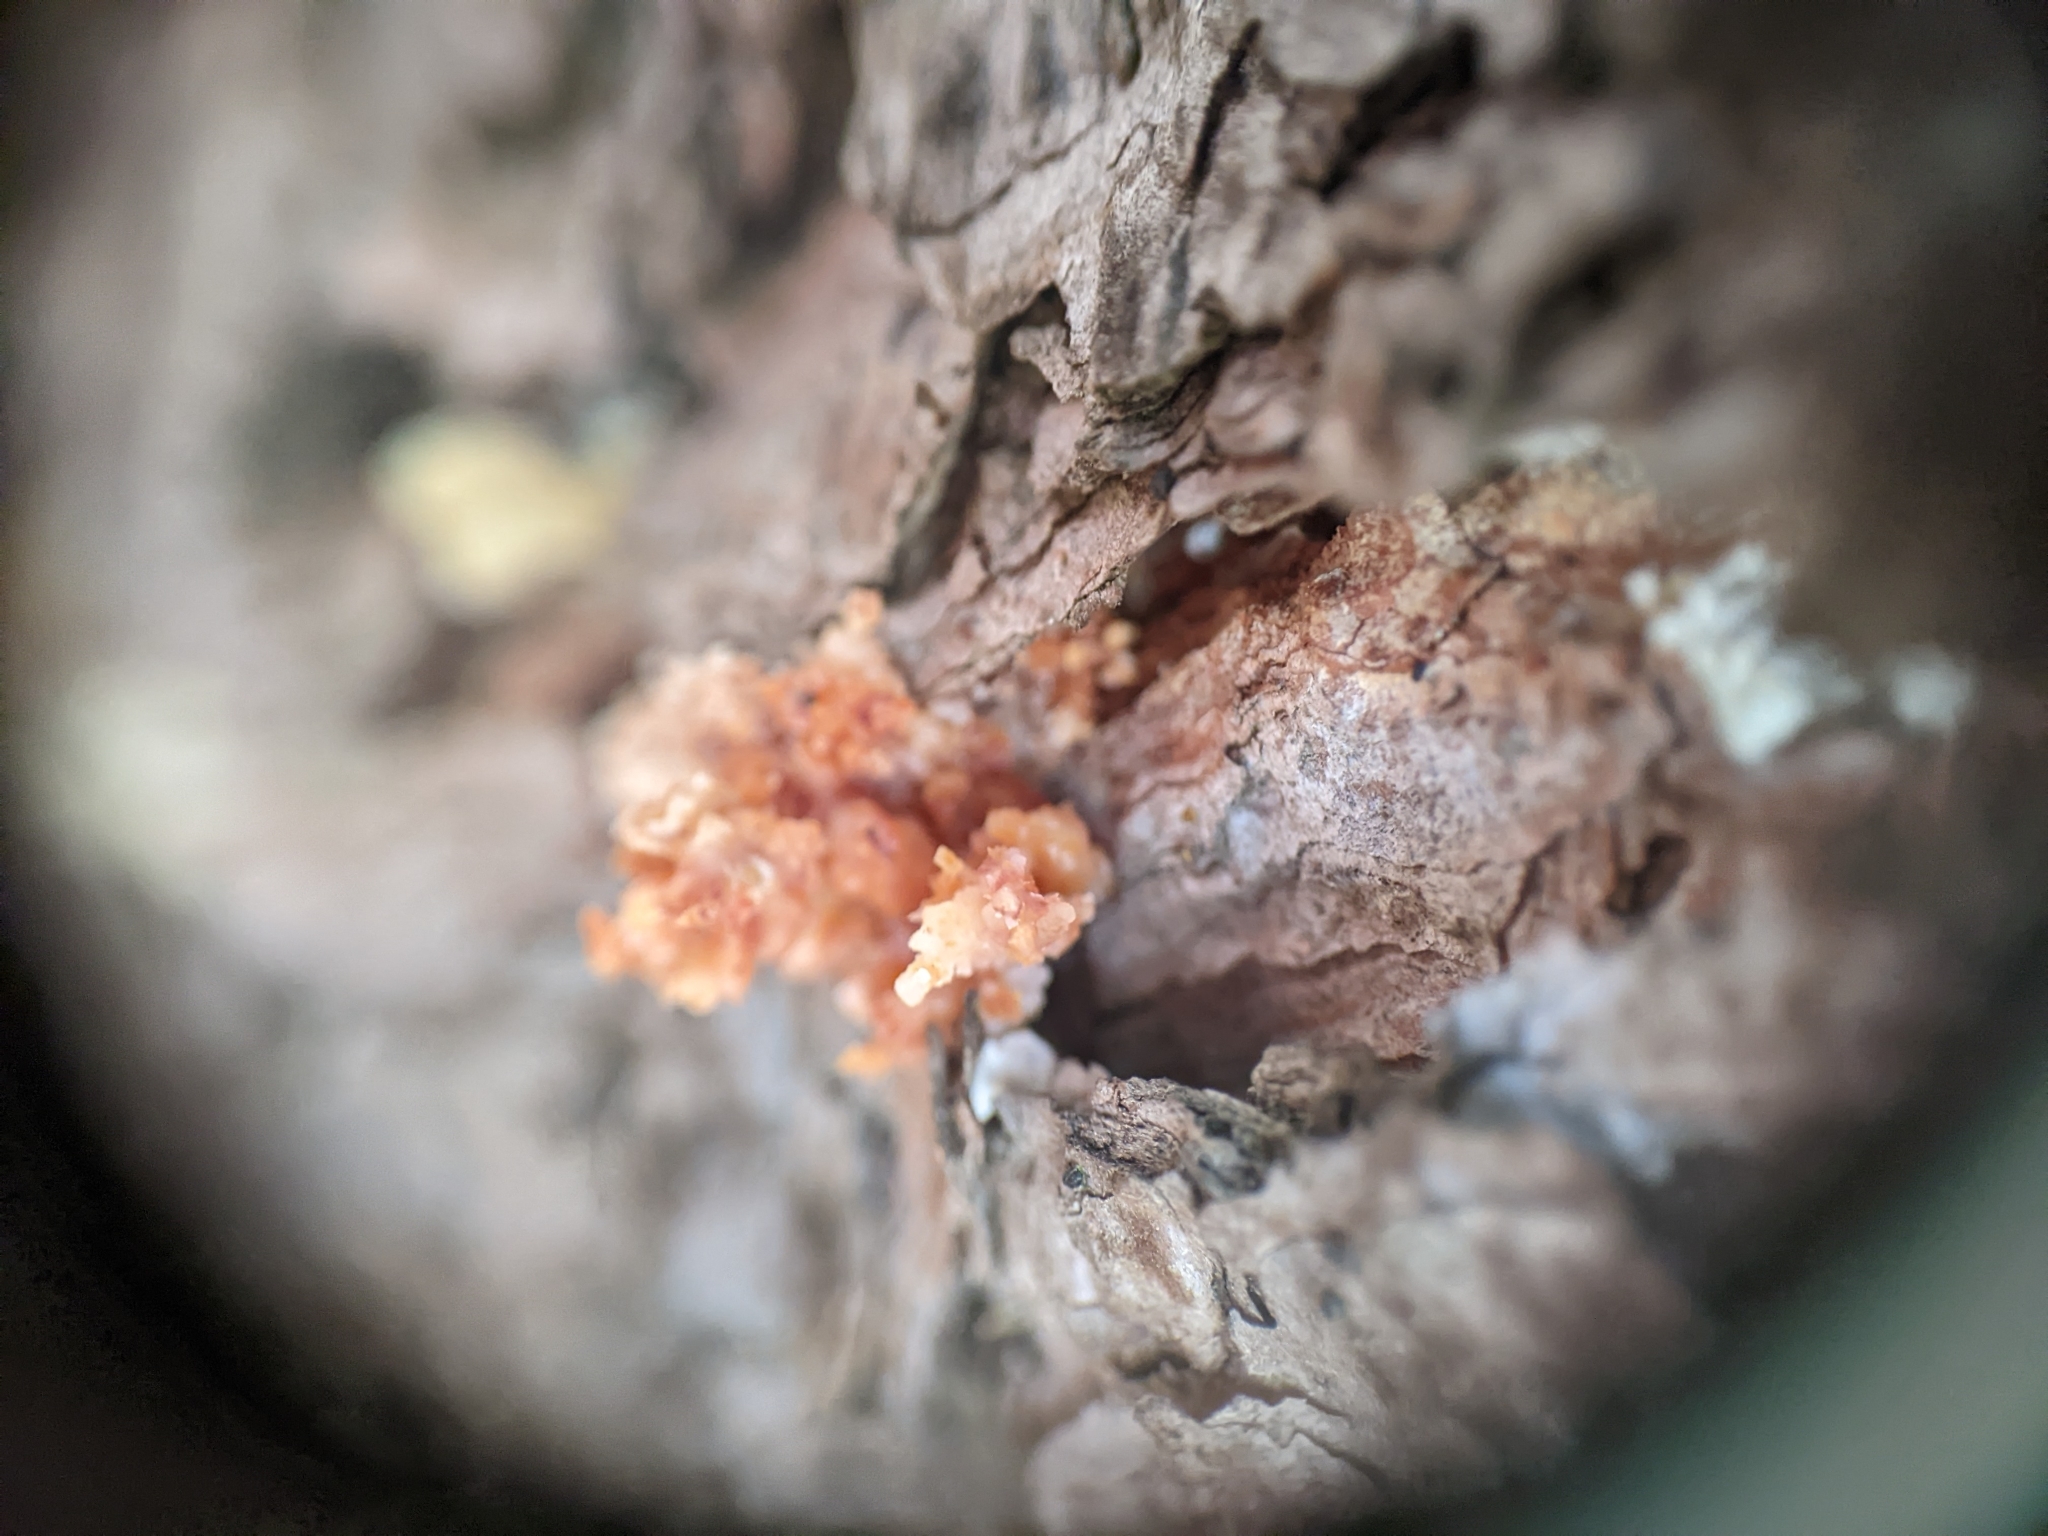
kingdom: Animalia
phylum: Arthropoda
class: Insecta
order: Coleoptera
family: Curculionidae
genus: Dendroctonus
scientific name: Dendroctonus valens
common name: Red turpentine beetle
